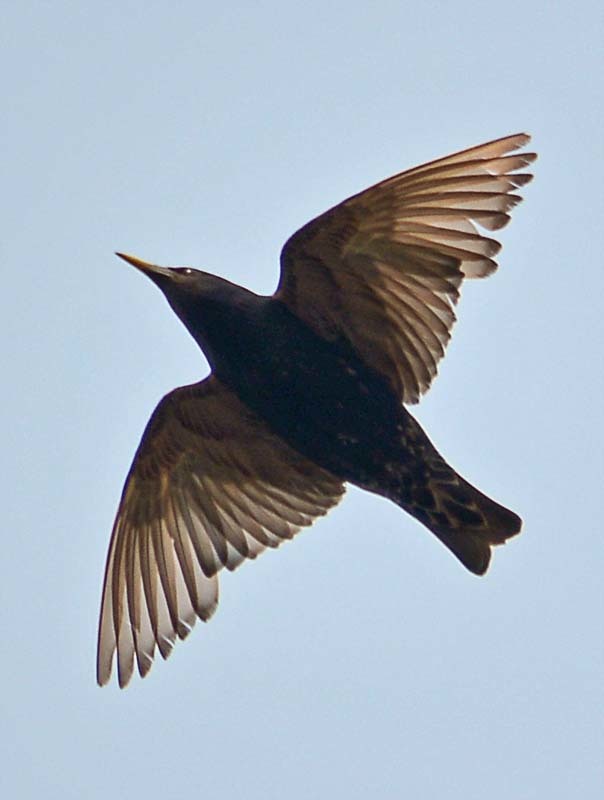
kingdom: Animalia
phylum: Chordata
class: Aves
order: Passeriformes
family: Sturnidae
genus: Sturnus
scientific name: Sturnus vulgaris
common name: Common starling
